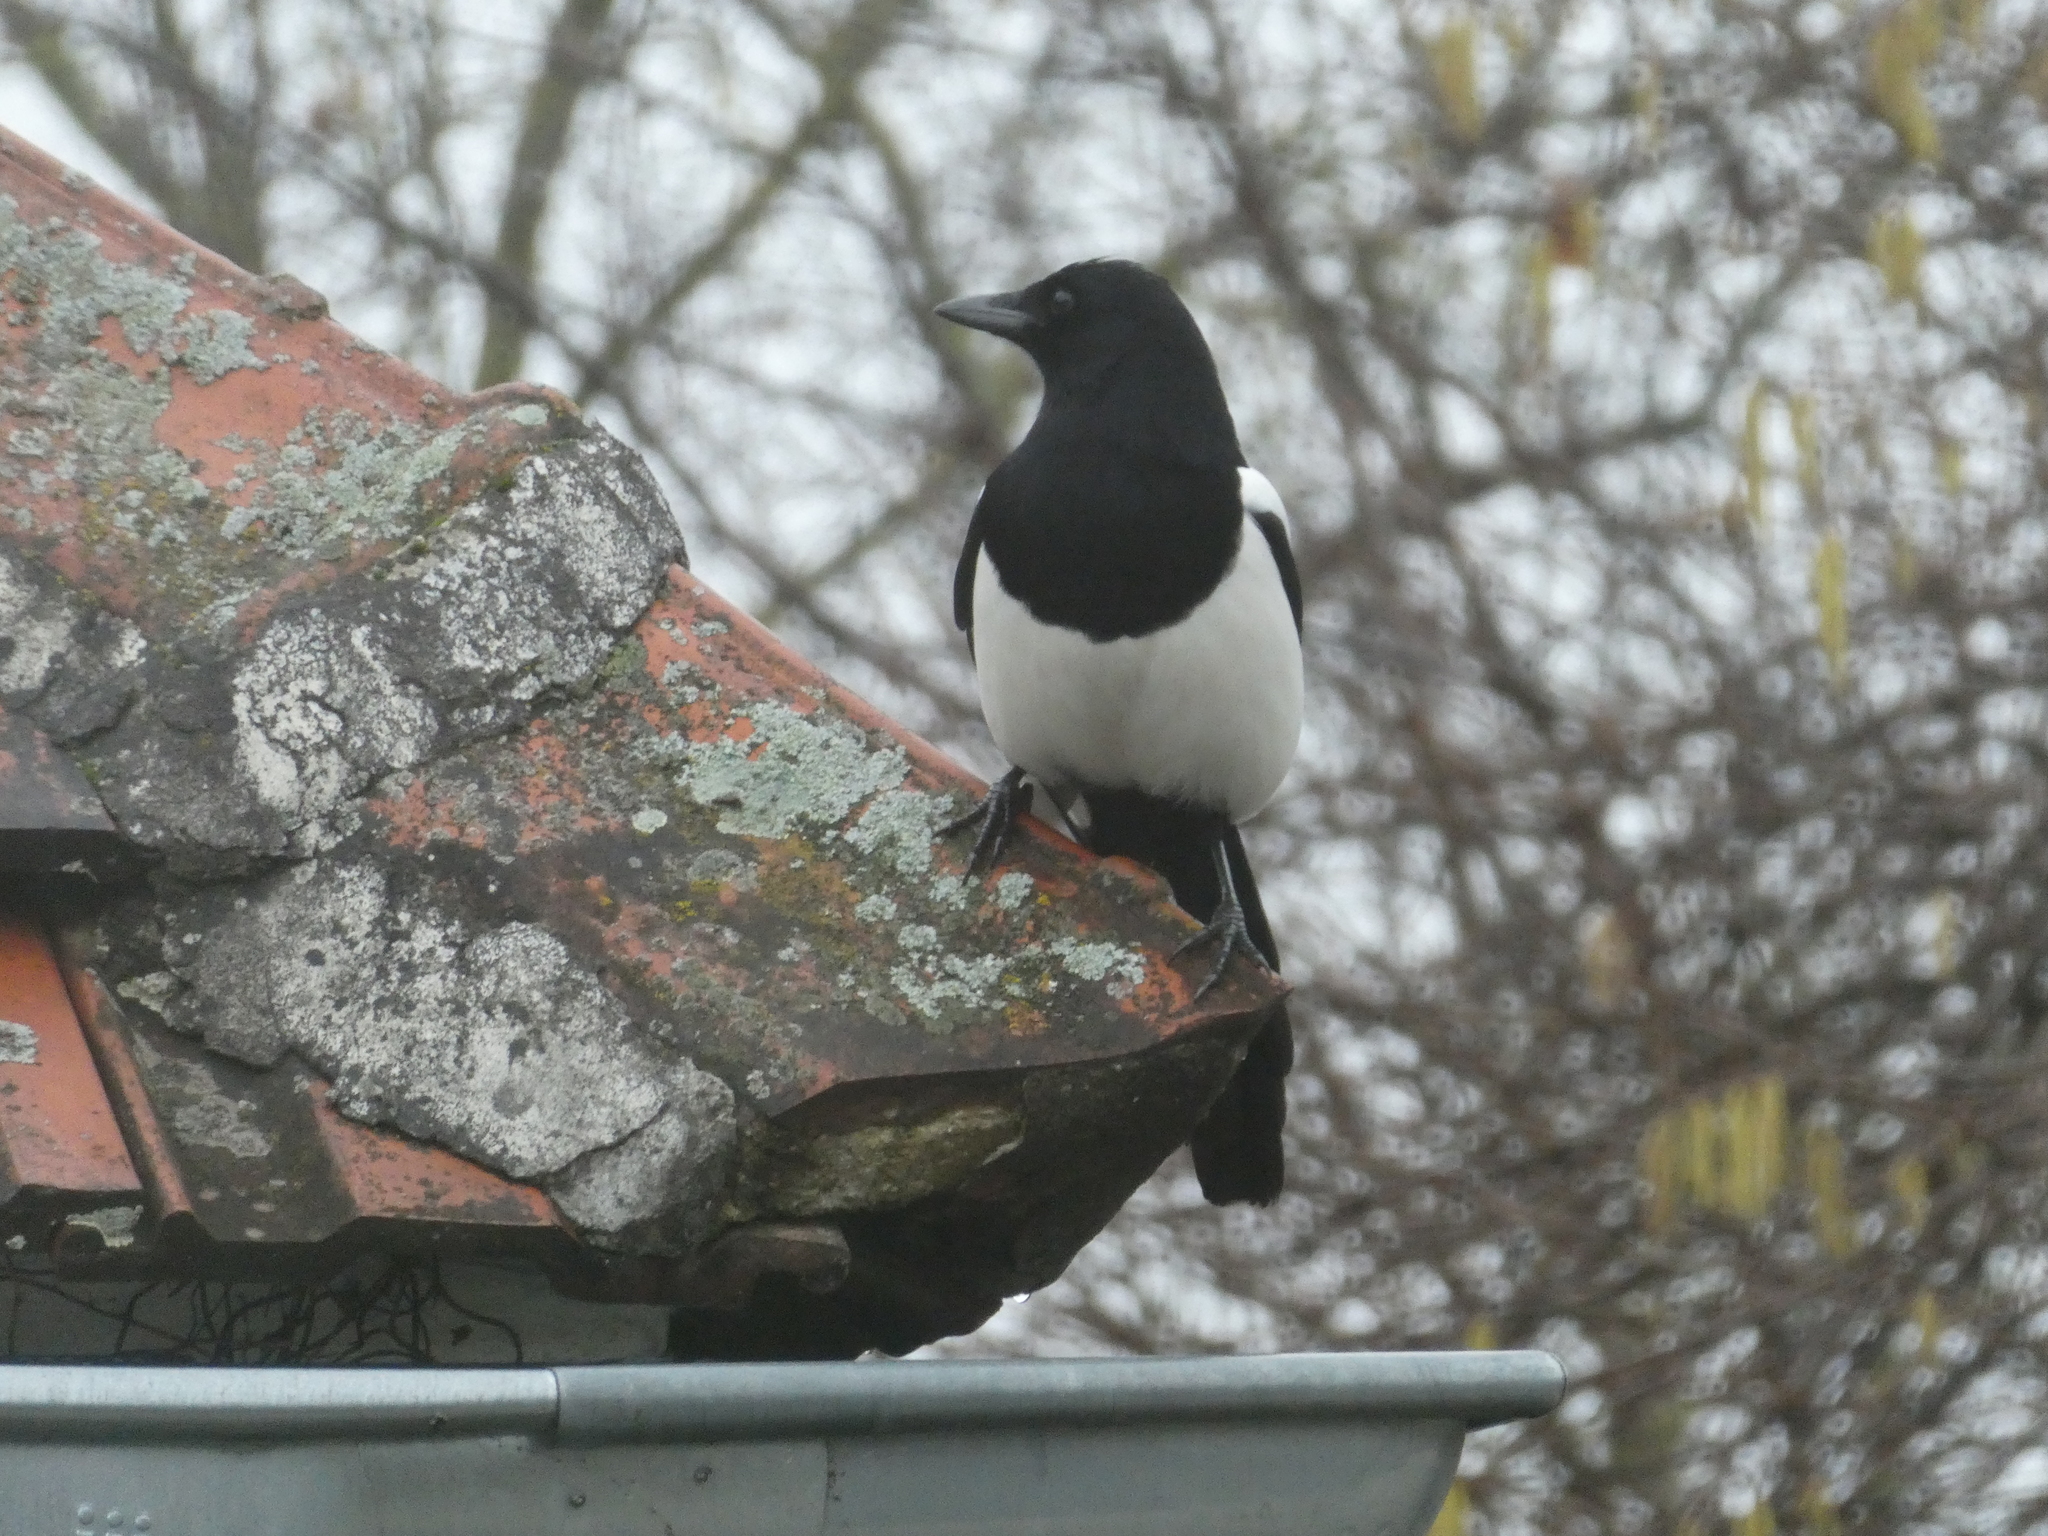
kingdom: Animalia
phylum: Chordata
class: Aves
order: Passeriformes
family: Corvidae
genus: Pica
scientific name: Pica pica
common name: Eurasian magpie
